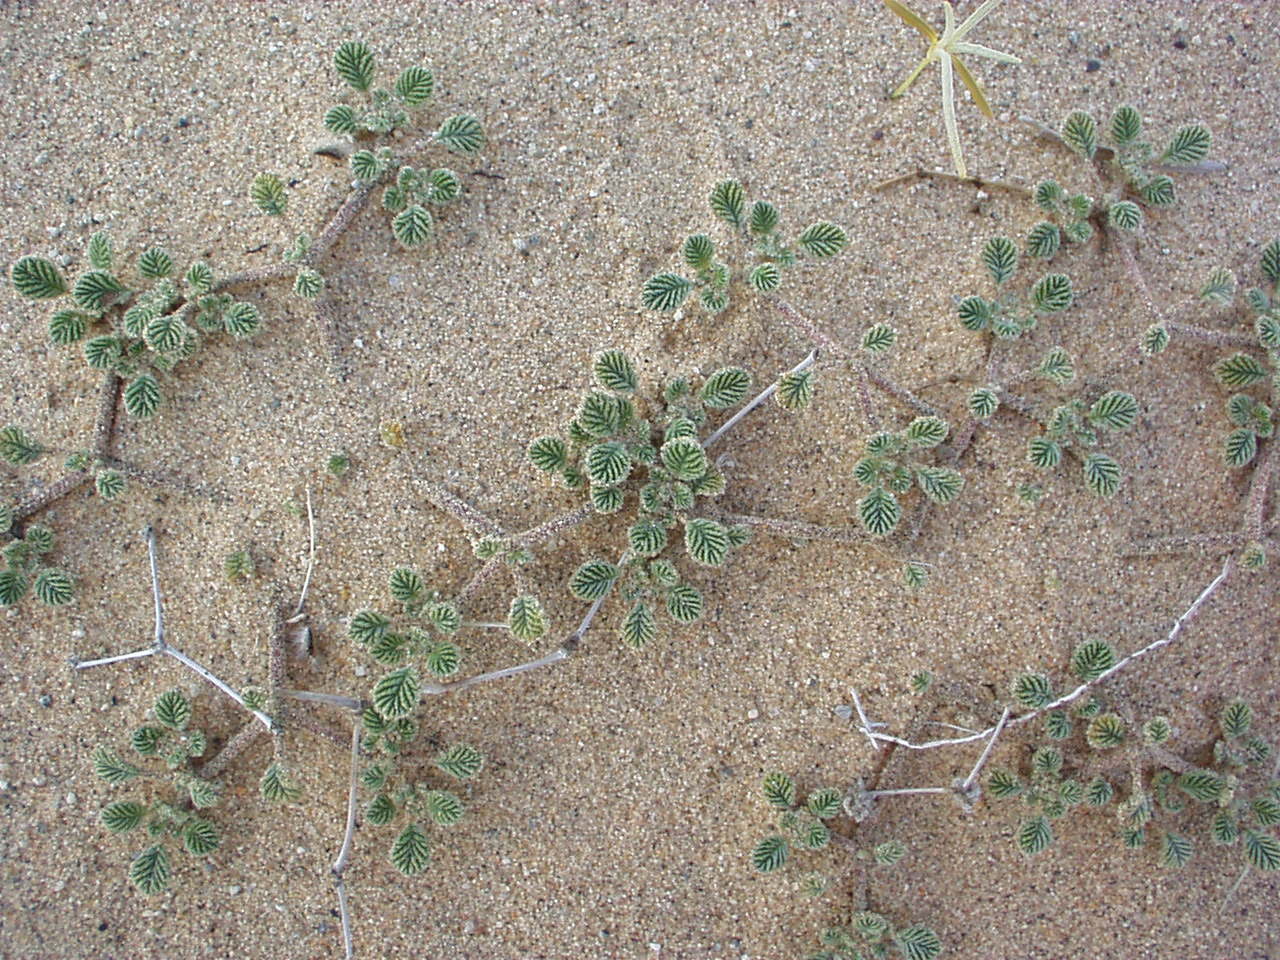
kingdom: Plantae
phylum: Tracheophyta
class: Magnoliopsida
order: Boraginales
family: Ehretiaceae
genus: Tiquilia
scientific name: Tiquilia plicata
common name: Fan-leaf tiquilia
